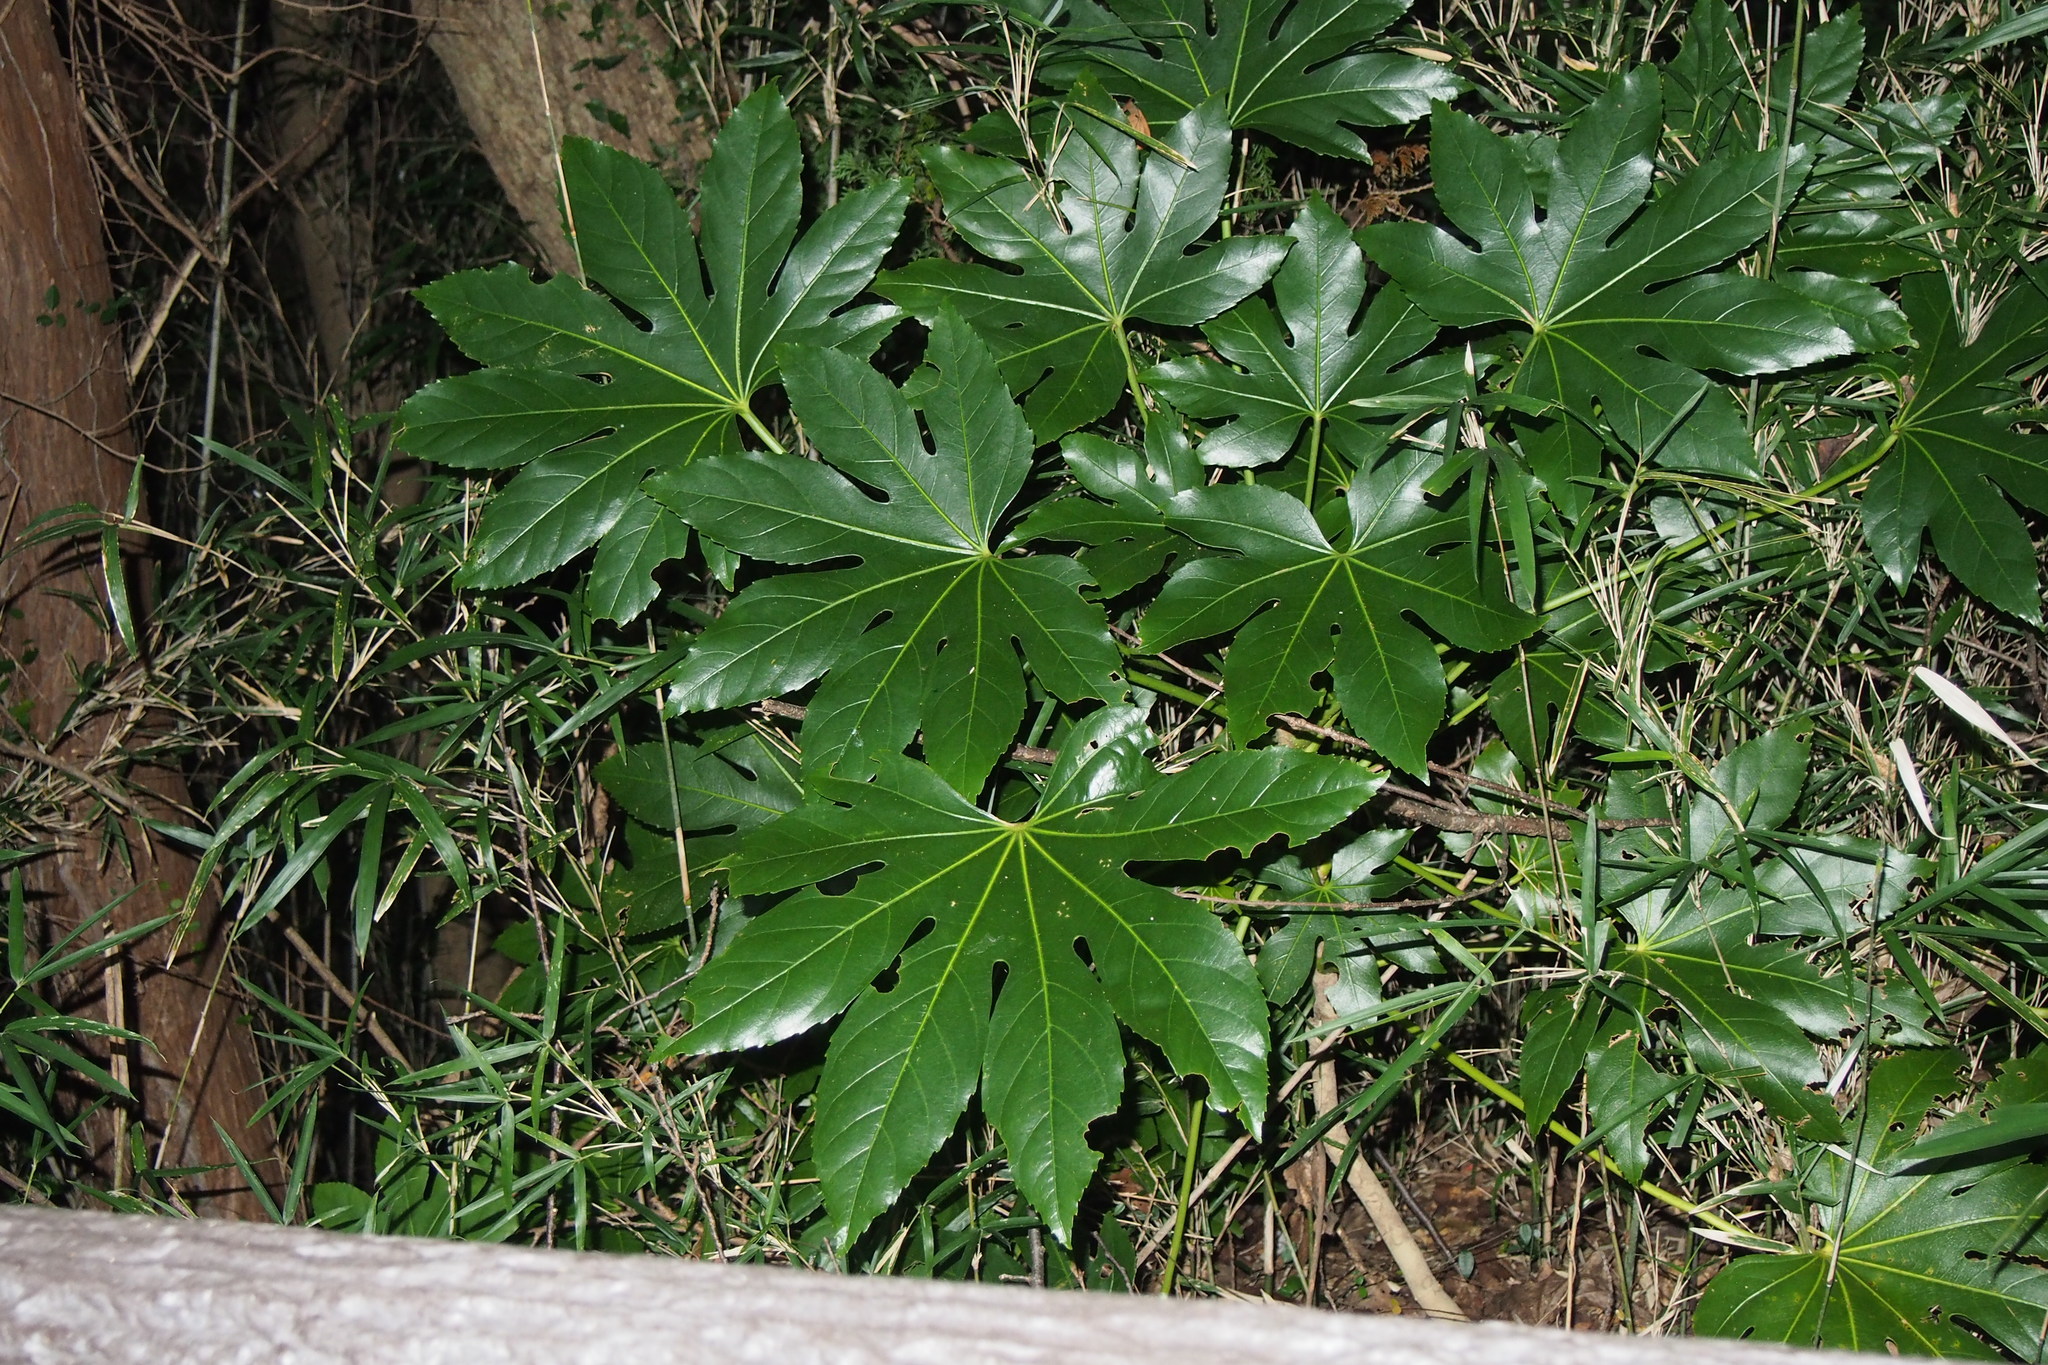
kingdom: Plantae
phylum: Tracheophyta
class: Magnoliopsida
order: Apiales
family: Araliaceae
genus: Fatsia
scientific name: Fatsia japonica
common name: Fatsia
